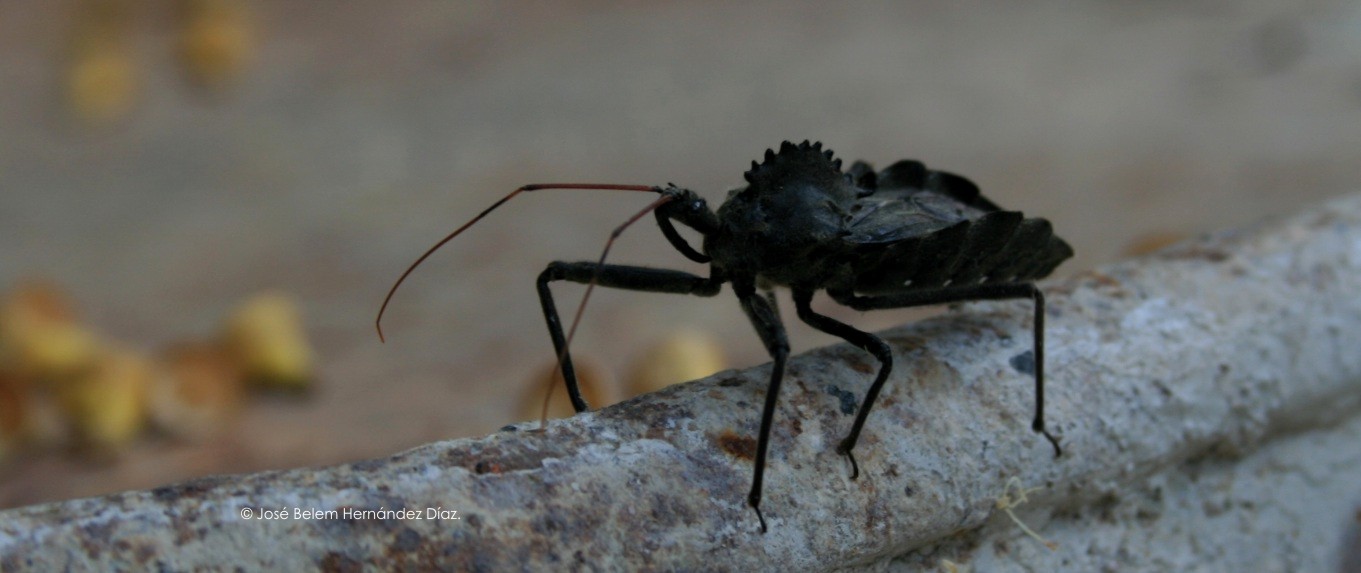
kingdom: Animalia
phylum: Arthropoda
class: Insecta
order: Hemiptera
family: Reduviidae
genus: Arilus
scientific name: Arilus cristatus
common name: North american wheel bug
